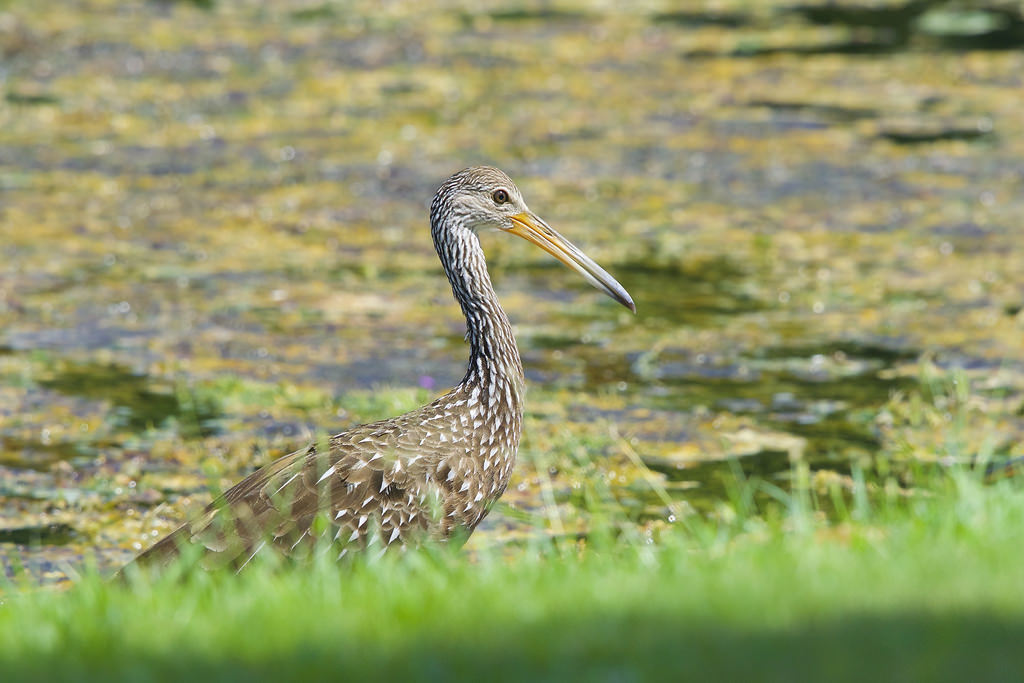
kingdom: Animalia
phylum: Chordata
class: Aves
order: Gruiformes
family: Aramidae
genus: Aramus
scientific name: Aramus guarauna
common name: Limpkin
